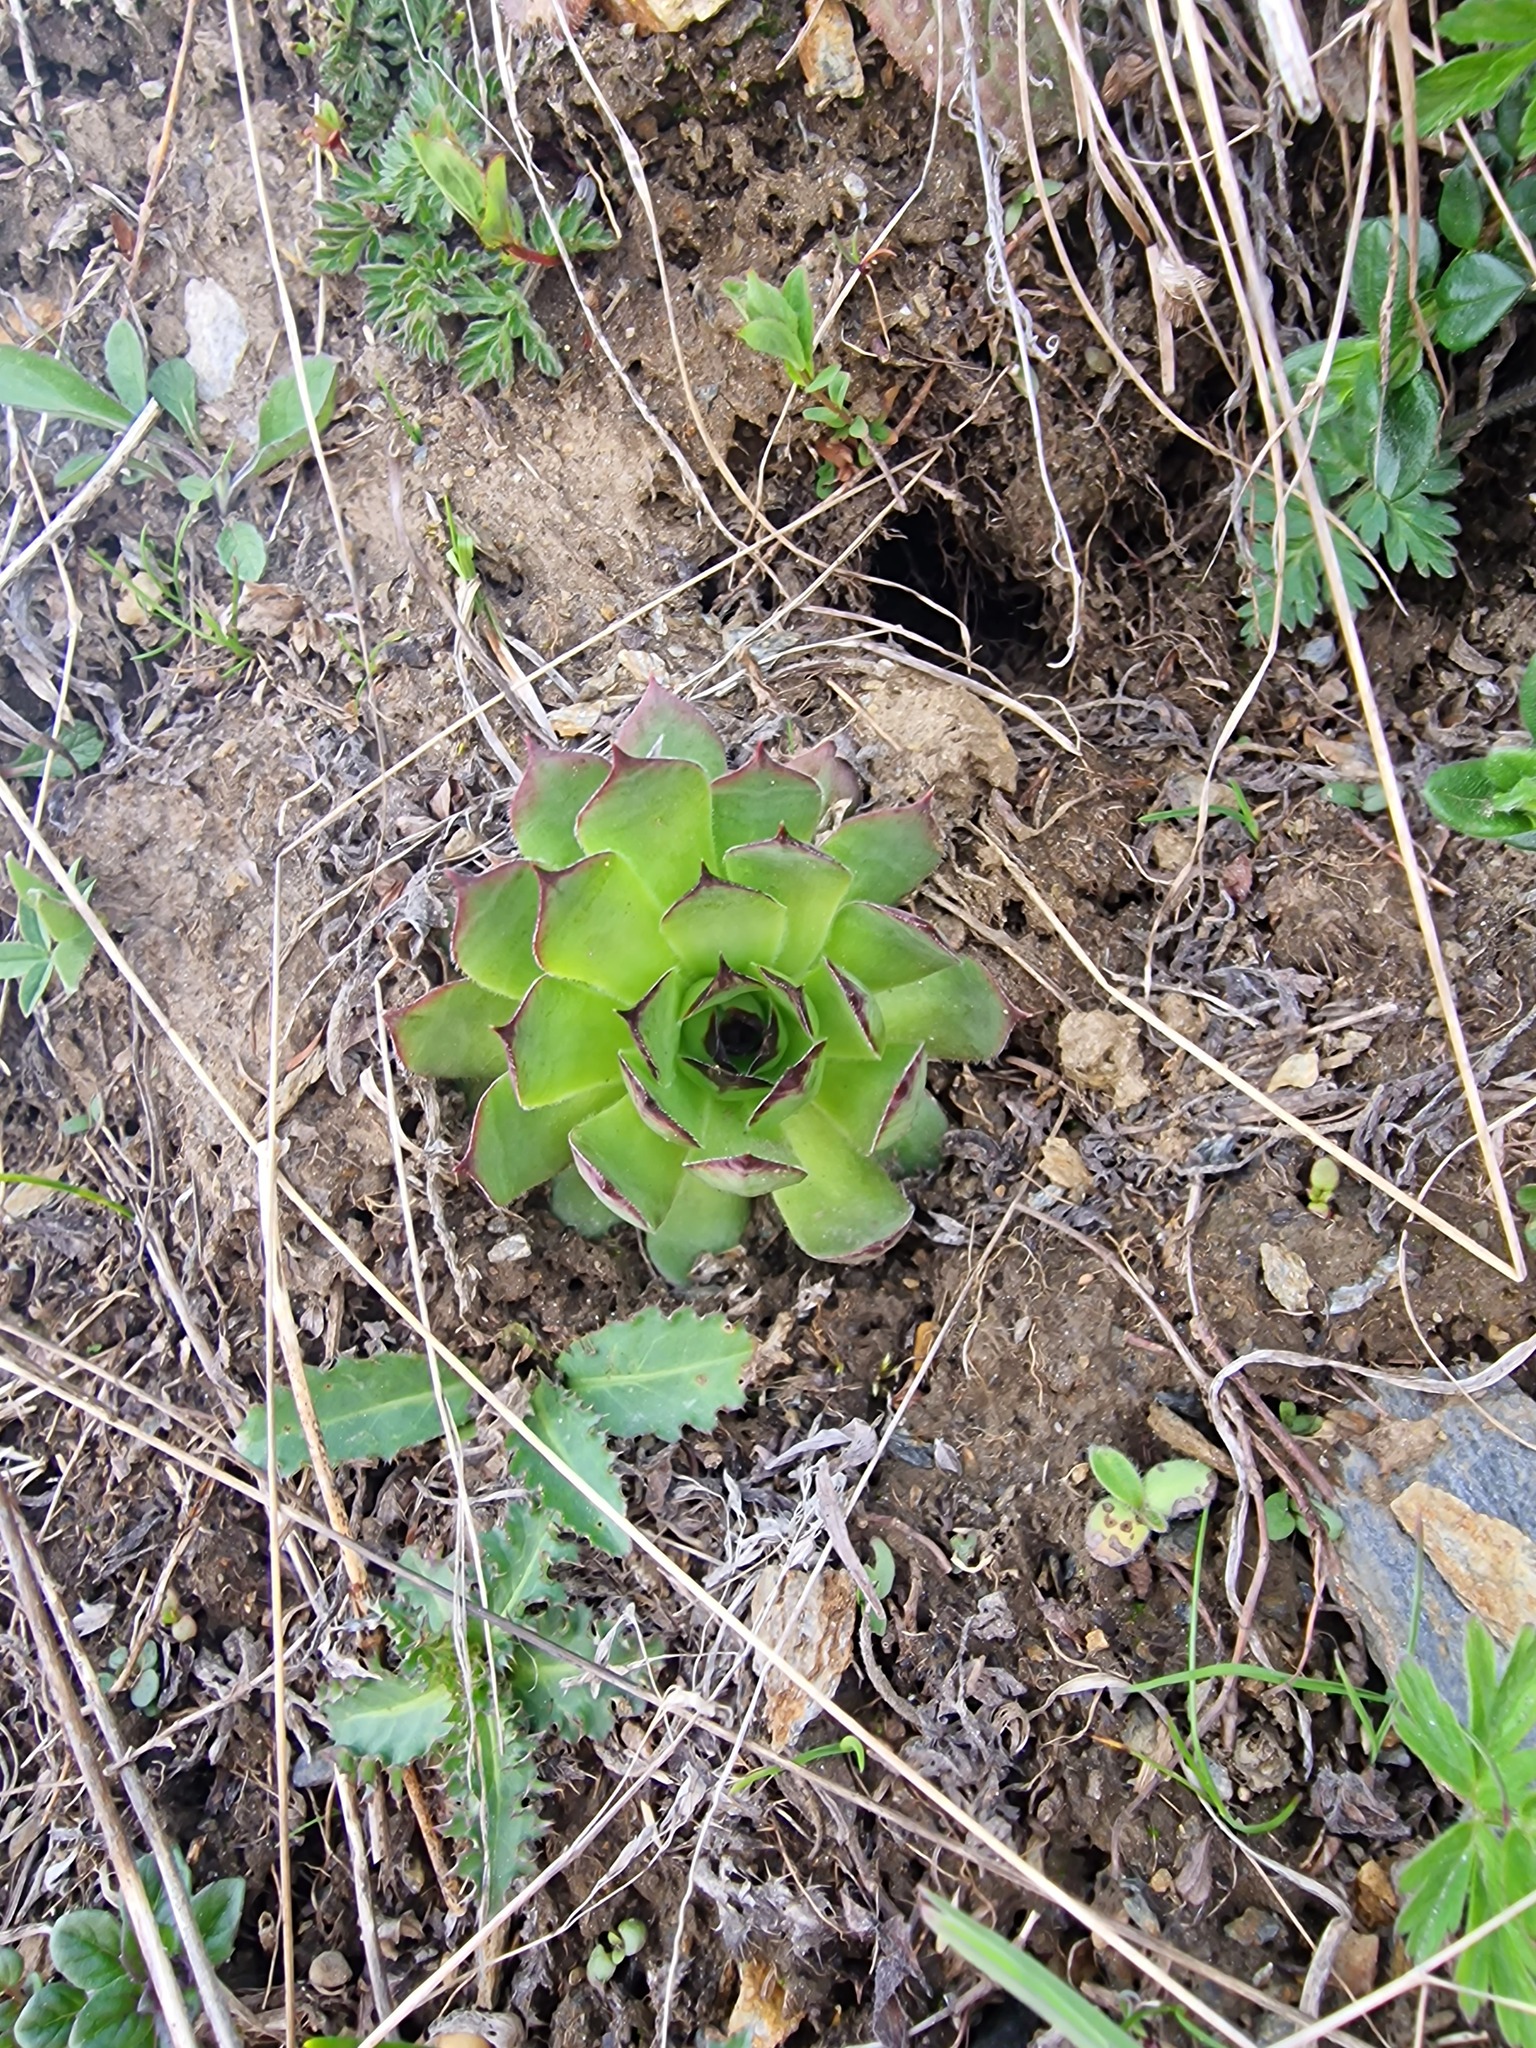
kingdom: Plantae
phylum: Tracheophyta
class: Magnoliopsida
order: Saxifragales
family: Crassulaceae
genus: Sempervivum
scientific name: Sempervivum tectorum
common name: House-leek
